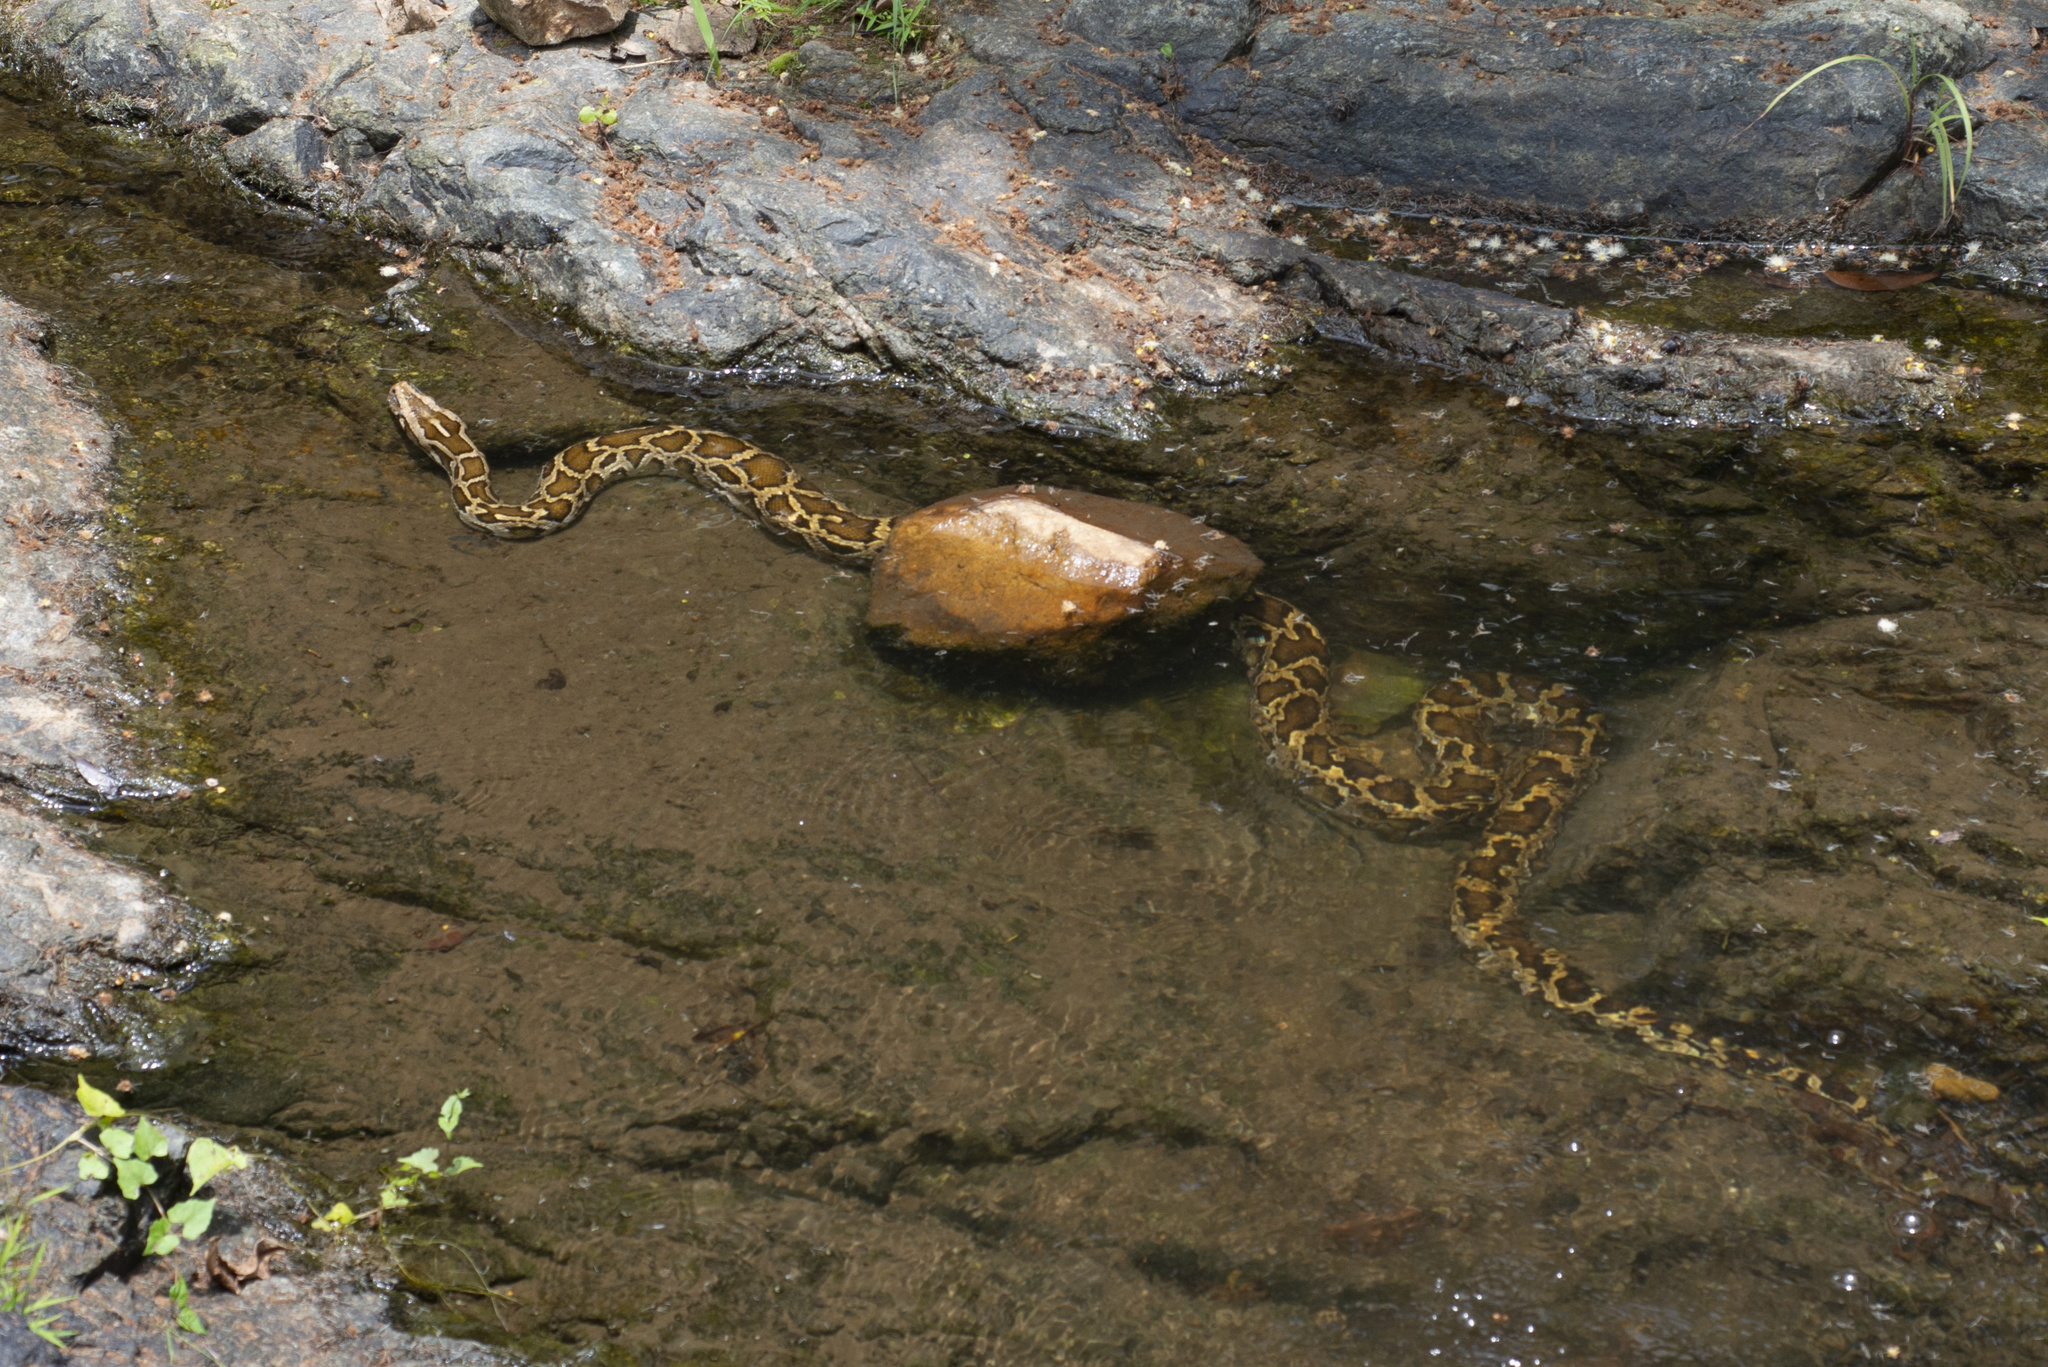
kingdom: Animalia
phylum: Chordata
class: Squamata
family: Pythonidae
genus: Python
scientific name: Python bivittatus
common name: Burmese python
